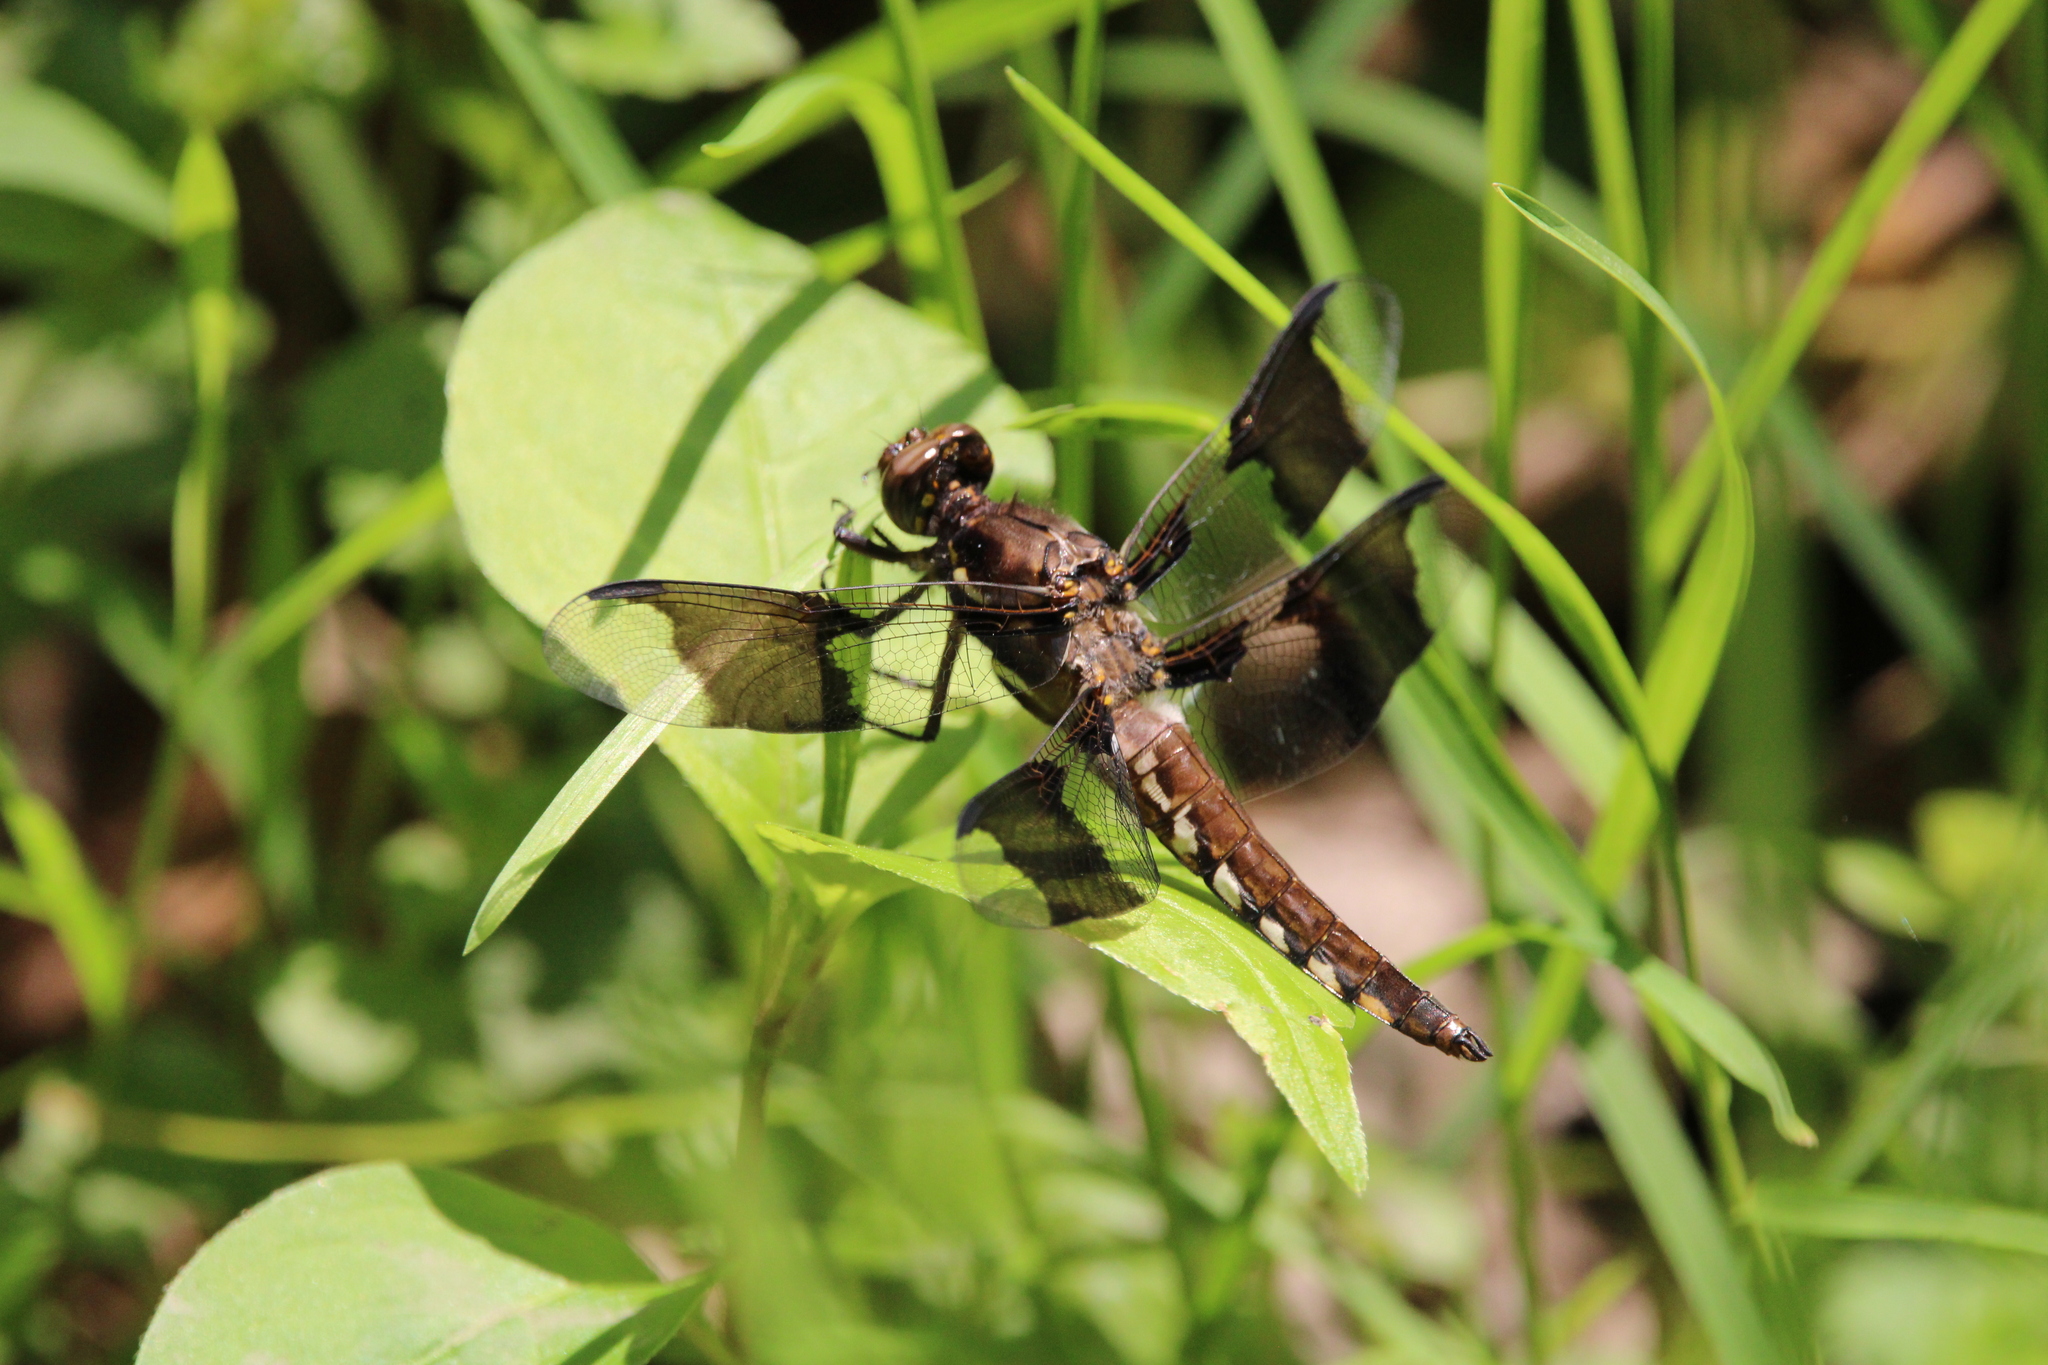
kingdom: Animalia
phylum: Arthropoda
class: Insecta
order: Odonata
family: Libellulidae
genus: Plathemis
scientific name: Plathemis lydia
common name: Common whitetail
